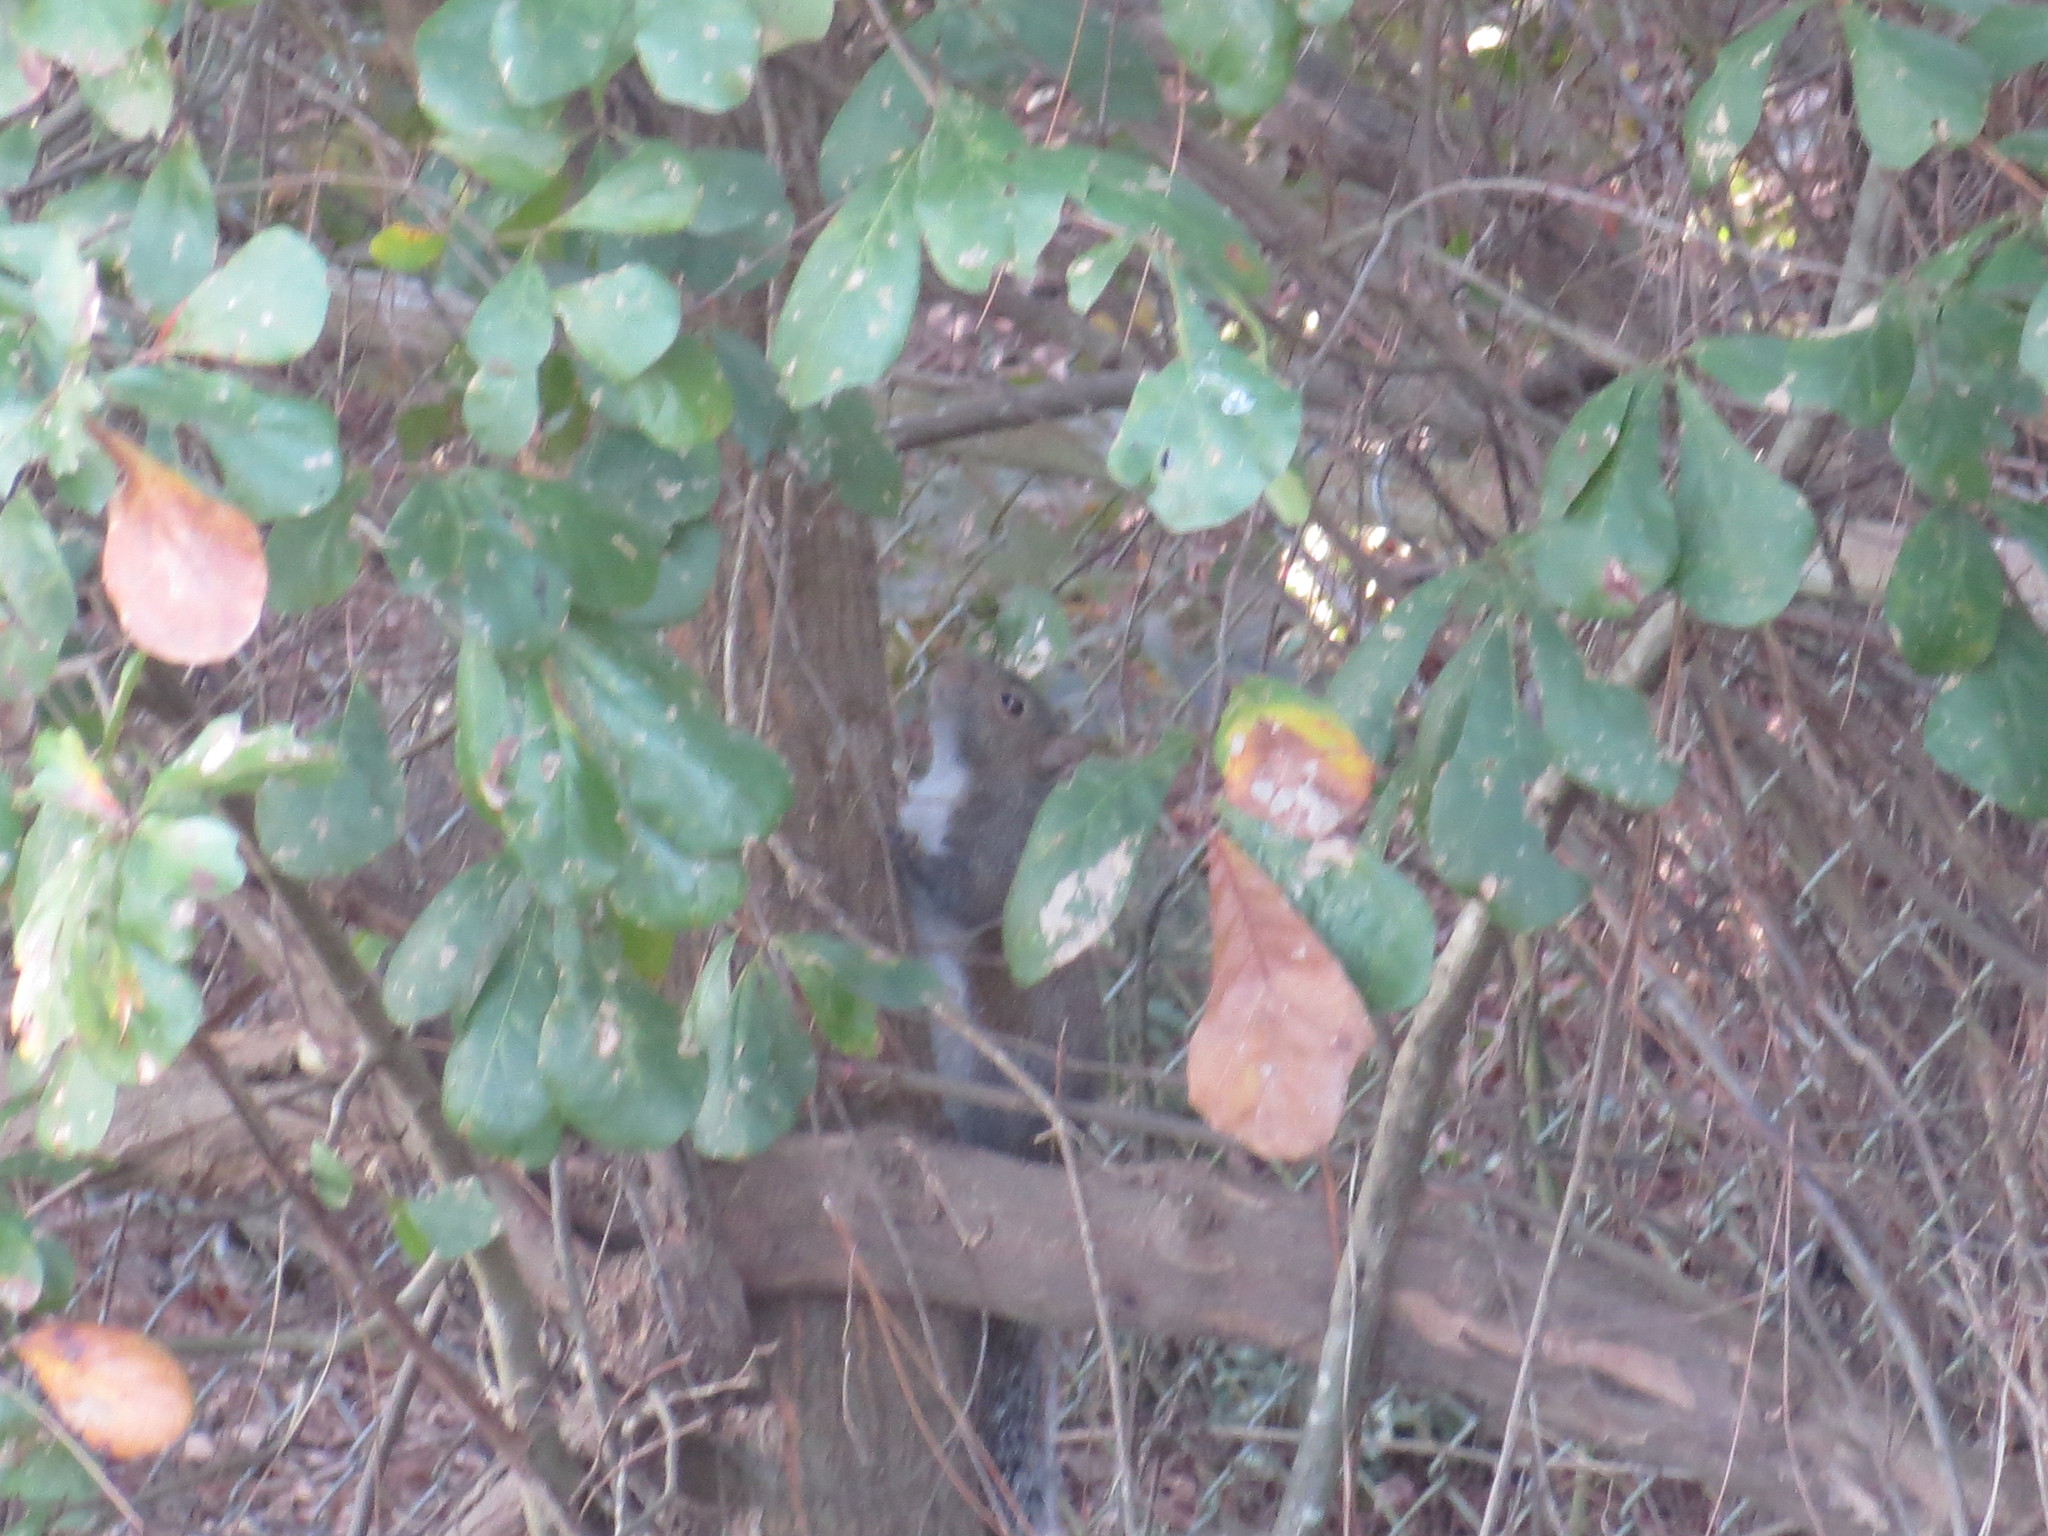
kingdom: Animalia
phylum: Chordata
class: Mammalia
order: Rodentia
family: Sciuridae
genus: Sciurus
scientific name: Sciurus carolinensis
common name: Eastern gray squirrel
